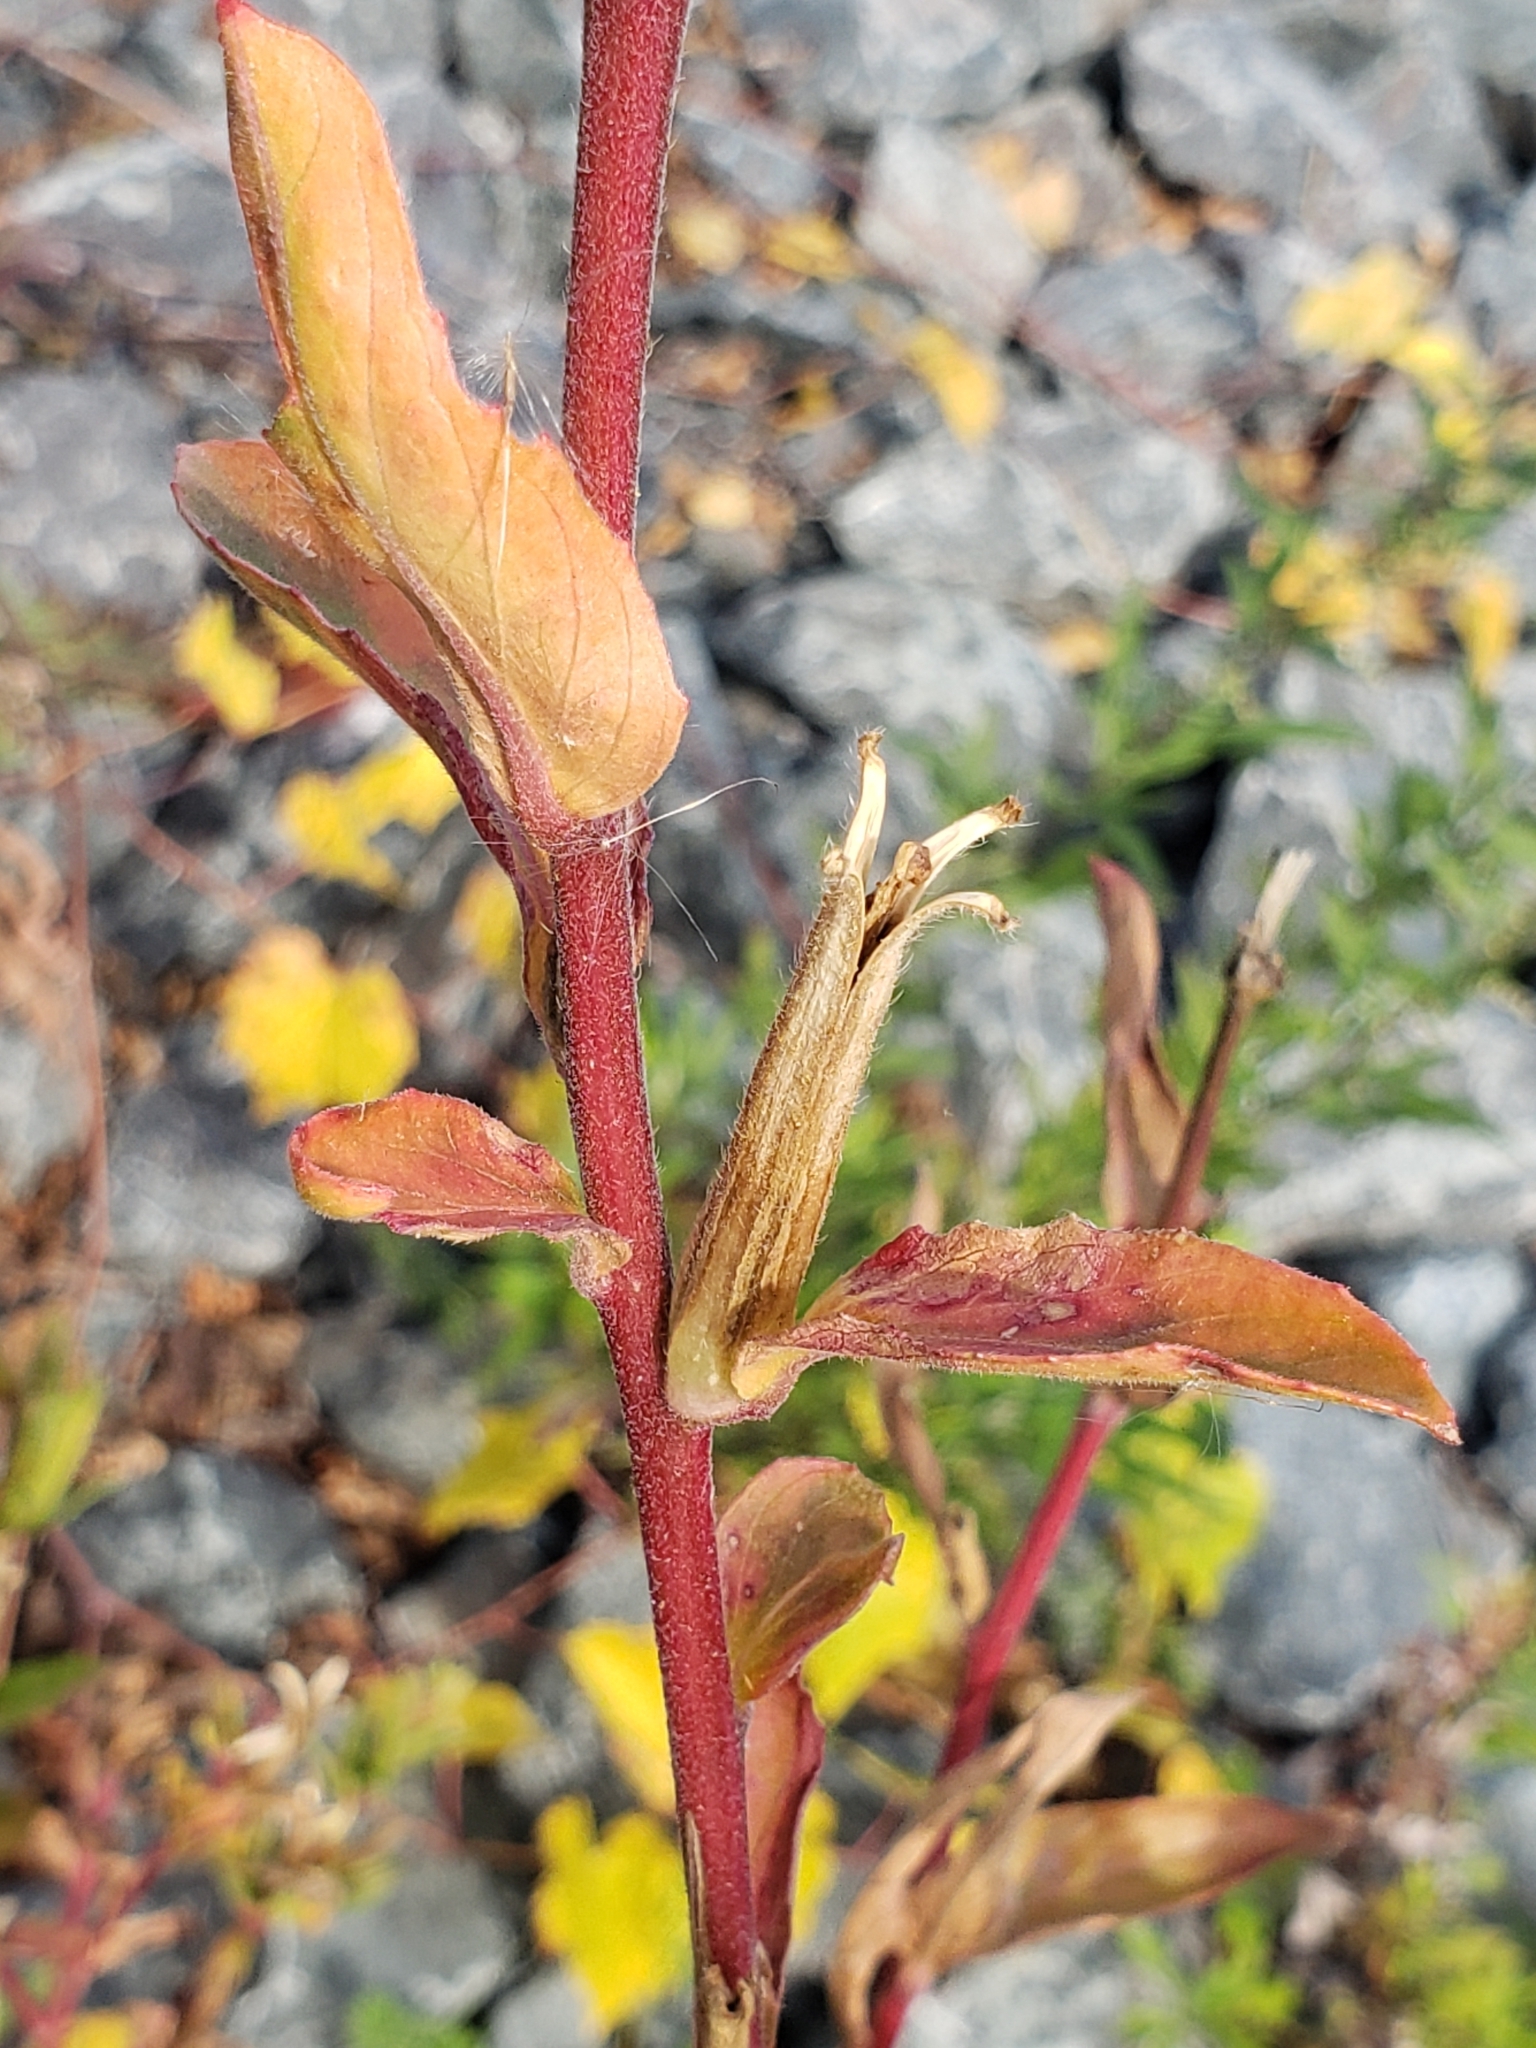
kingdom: Plantae
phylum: Tracheophyta
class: Magnoliopsida
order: Myrtales
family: Onagraceae
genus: Oenothera
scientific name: Oenothera biennis
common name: Common evening-primrose
